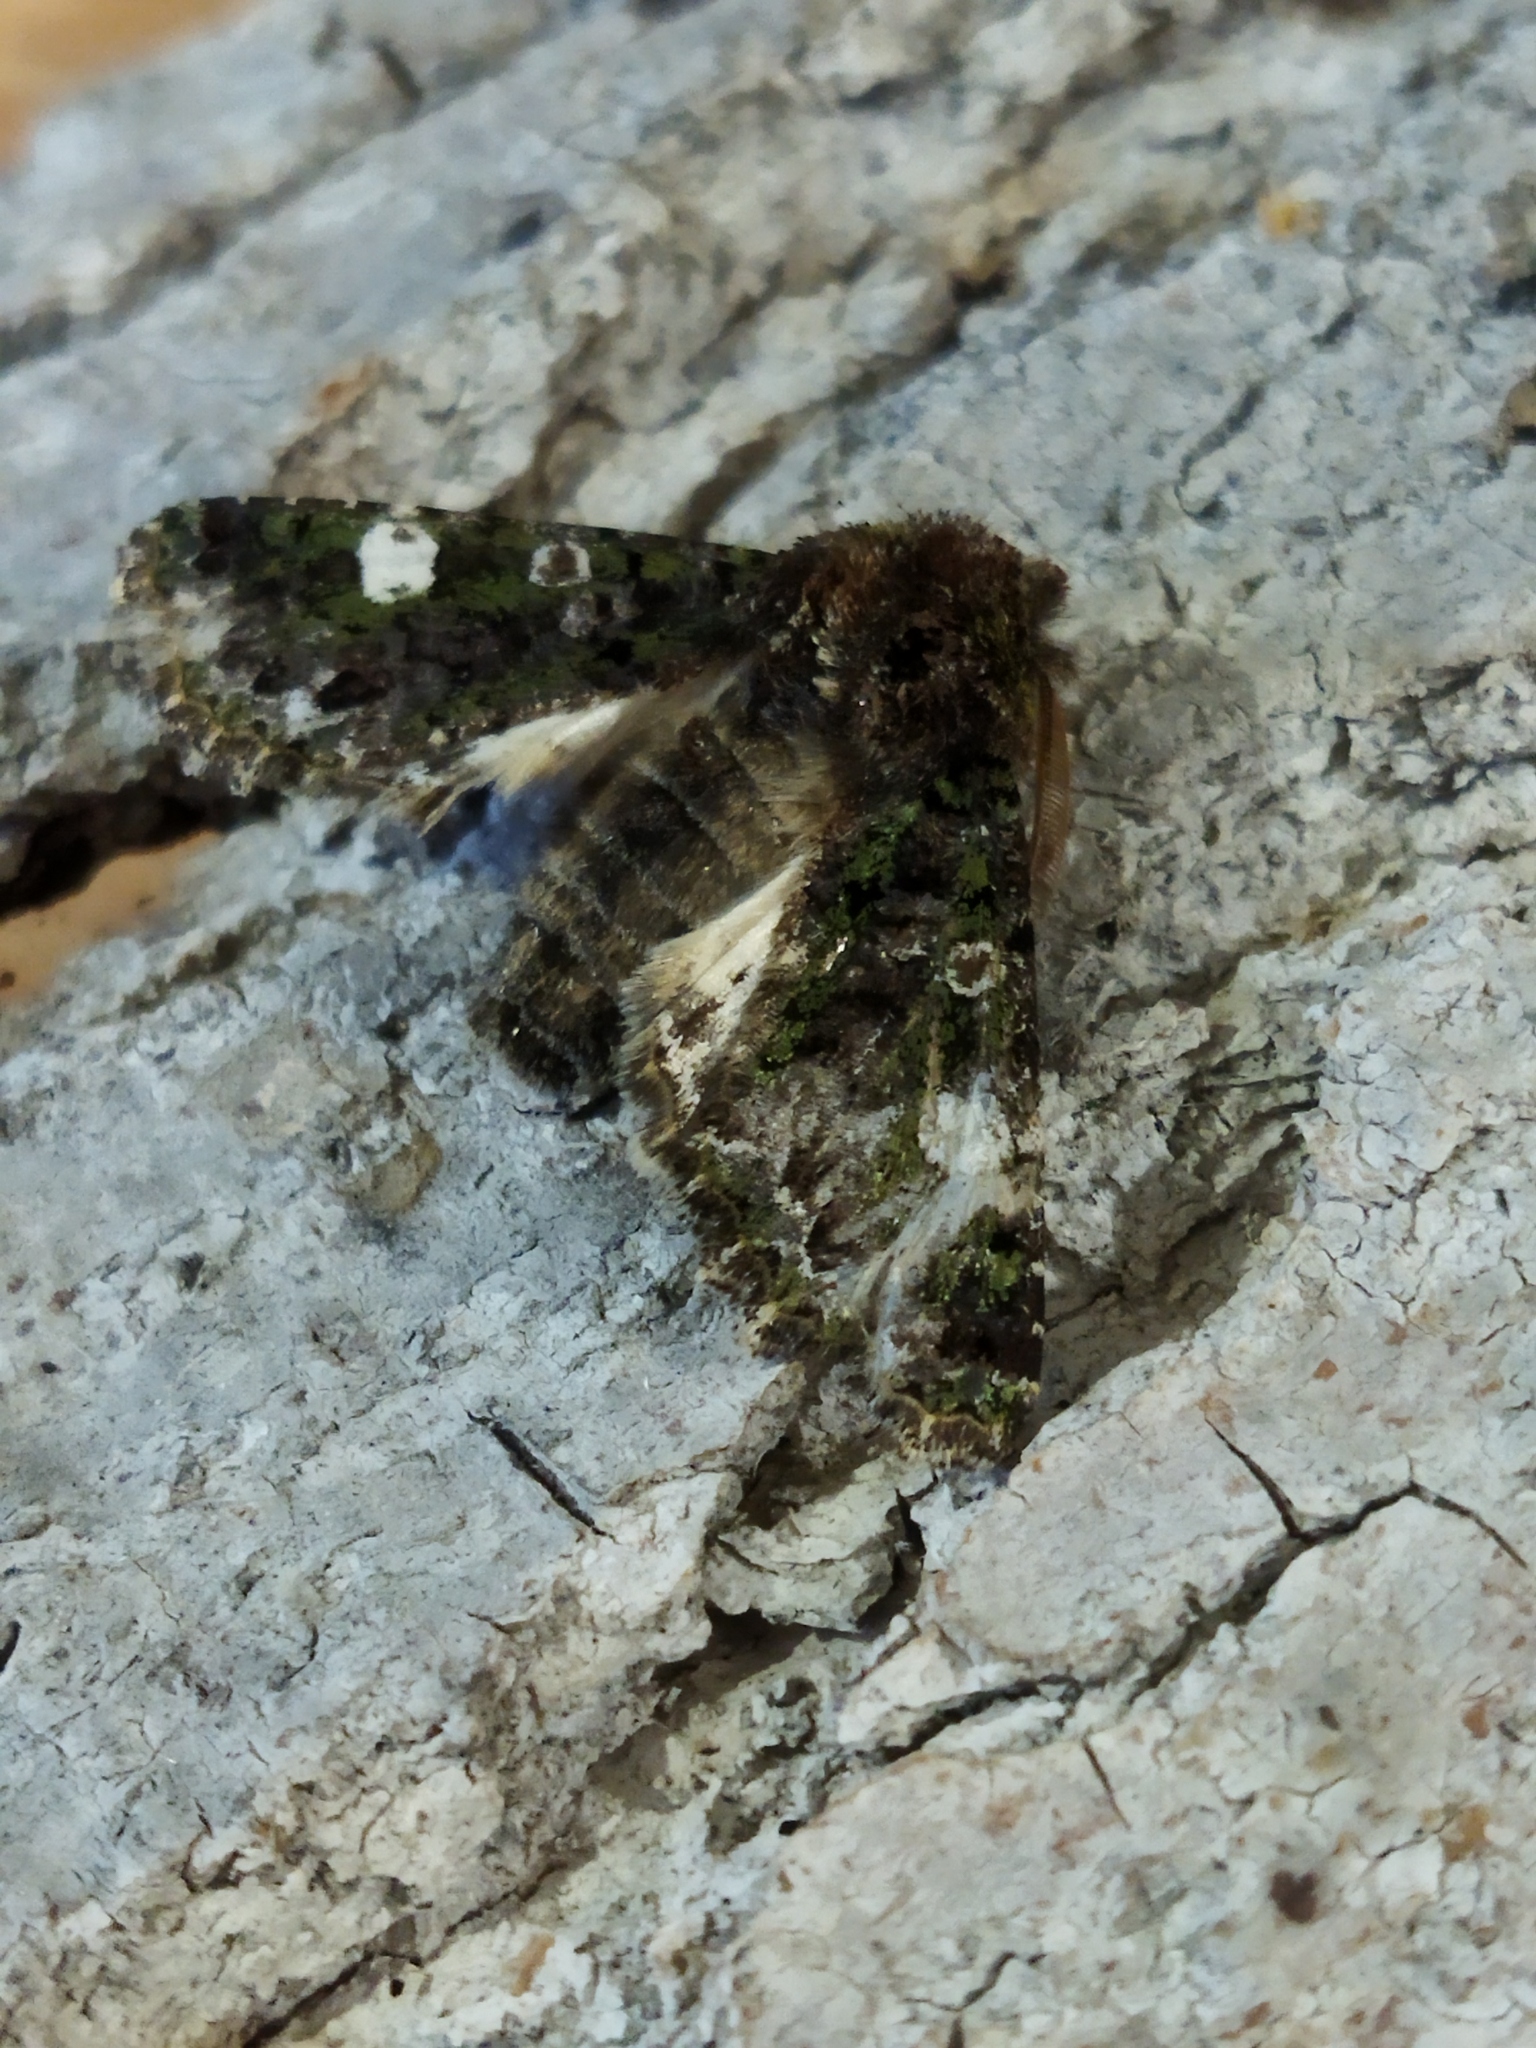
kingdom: Animalia
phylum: Arthropoda
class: Insecta
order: Lepidoptera
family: Noctuidae
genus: Valeria
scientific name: Valeria oleagina
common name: Green-brindled dot
